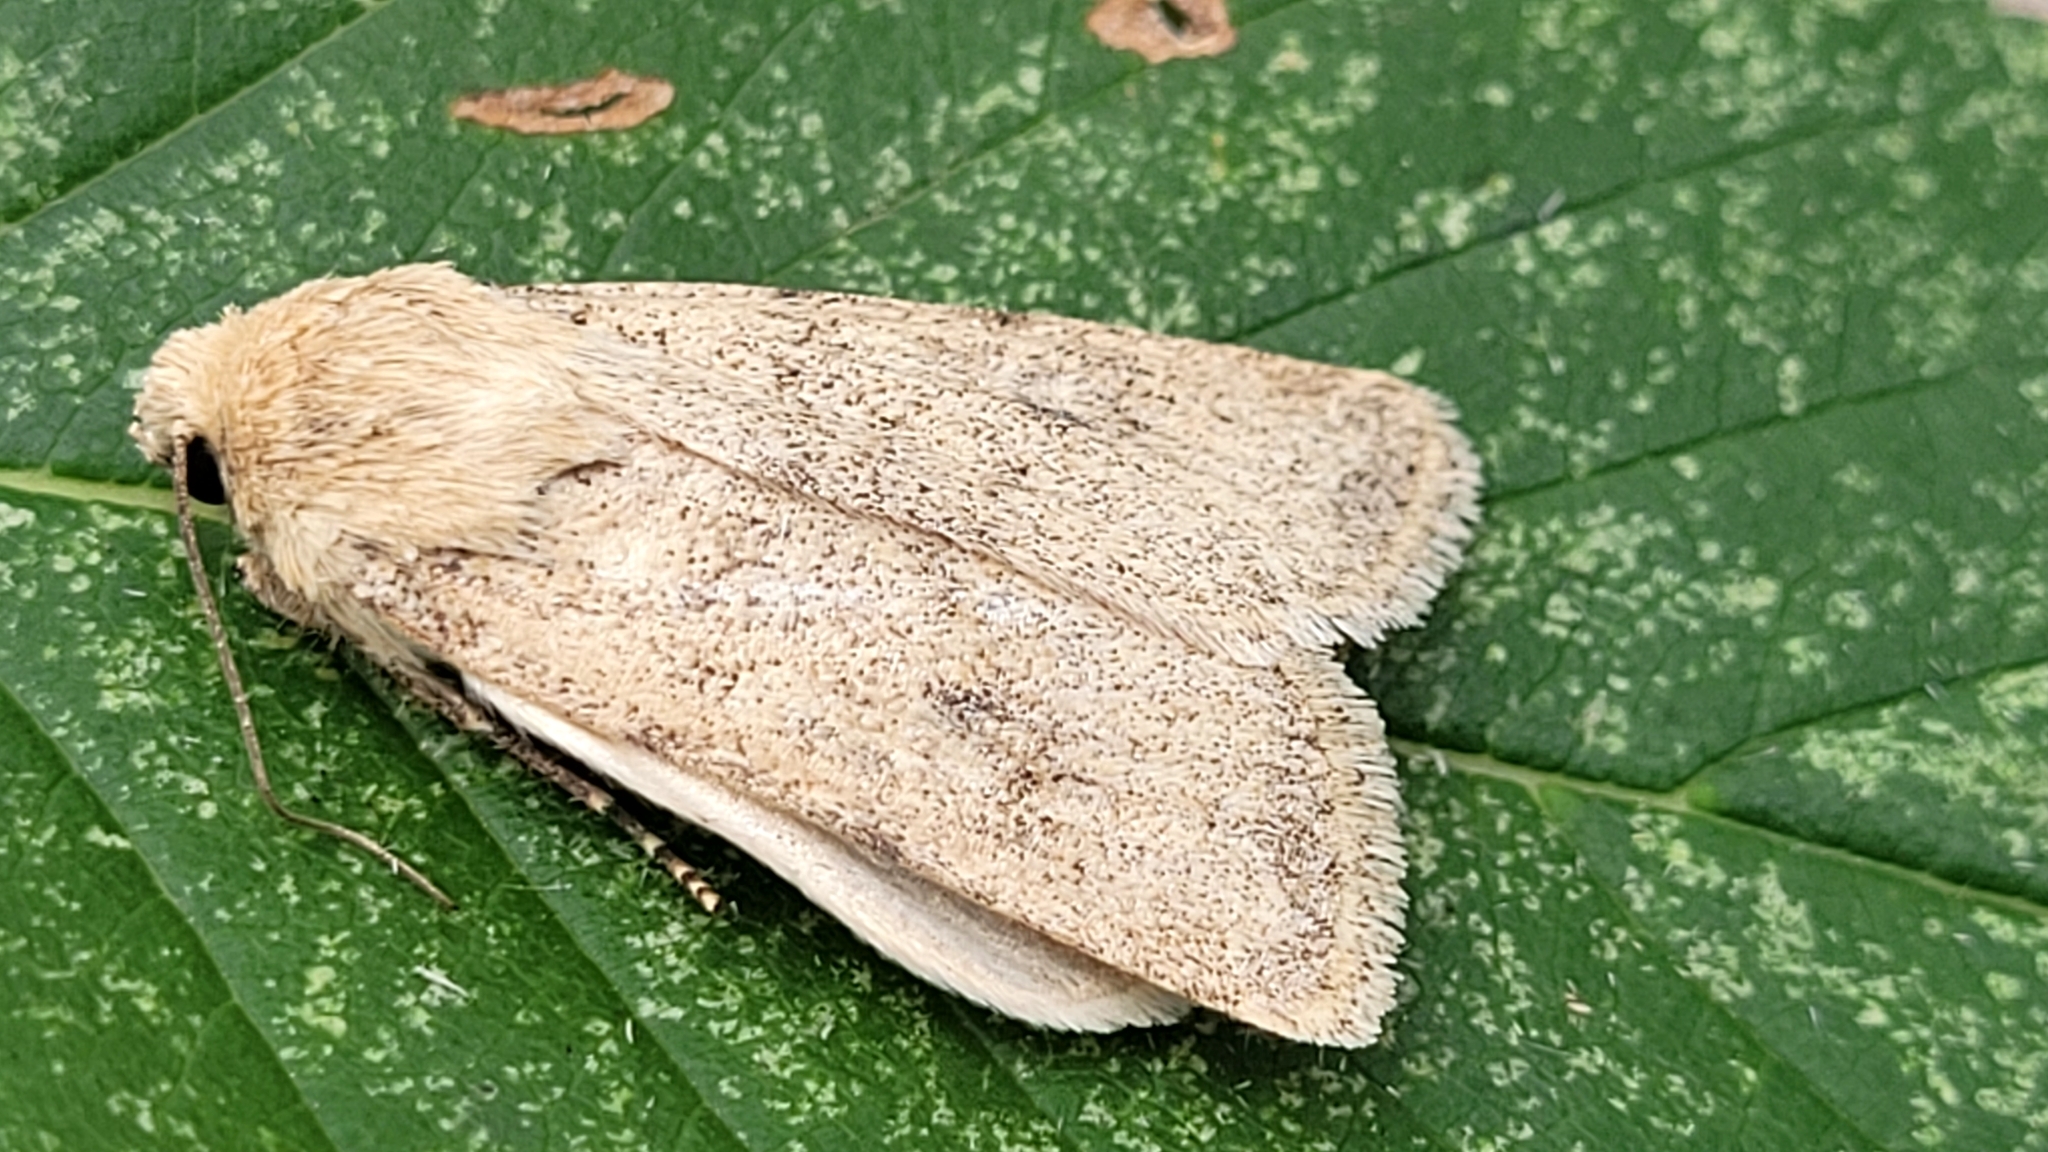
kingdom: Animalia
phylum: Arthropoda
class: Insecta
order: Lepidoptera
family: Noctuidae
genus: Euxoa
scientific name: Euxoa tronella
